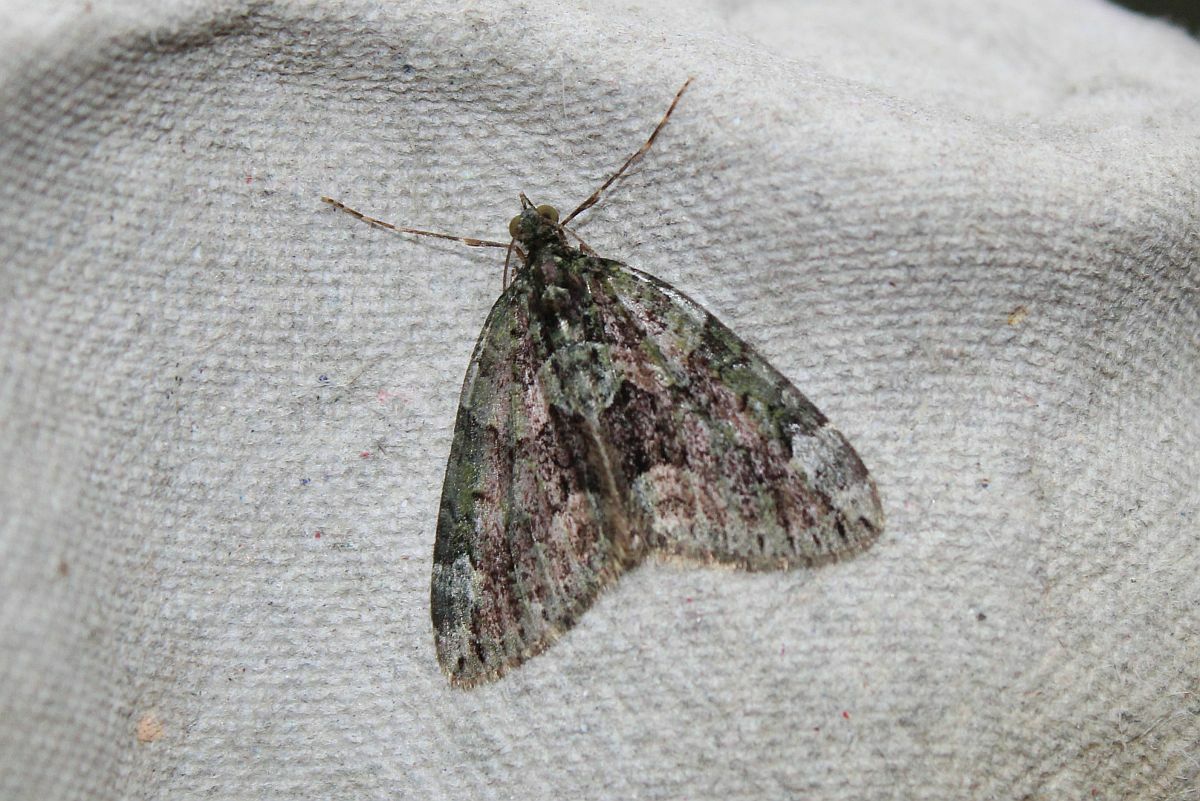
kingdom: Animalia
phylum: Arthropoda
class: Insecta
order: Lepidoptera
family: Geometridae
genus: Chloroclysta
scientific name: Chloroclysta siterata
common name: Red-green carpet
